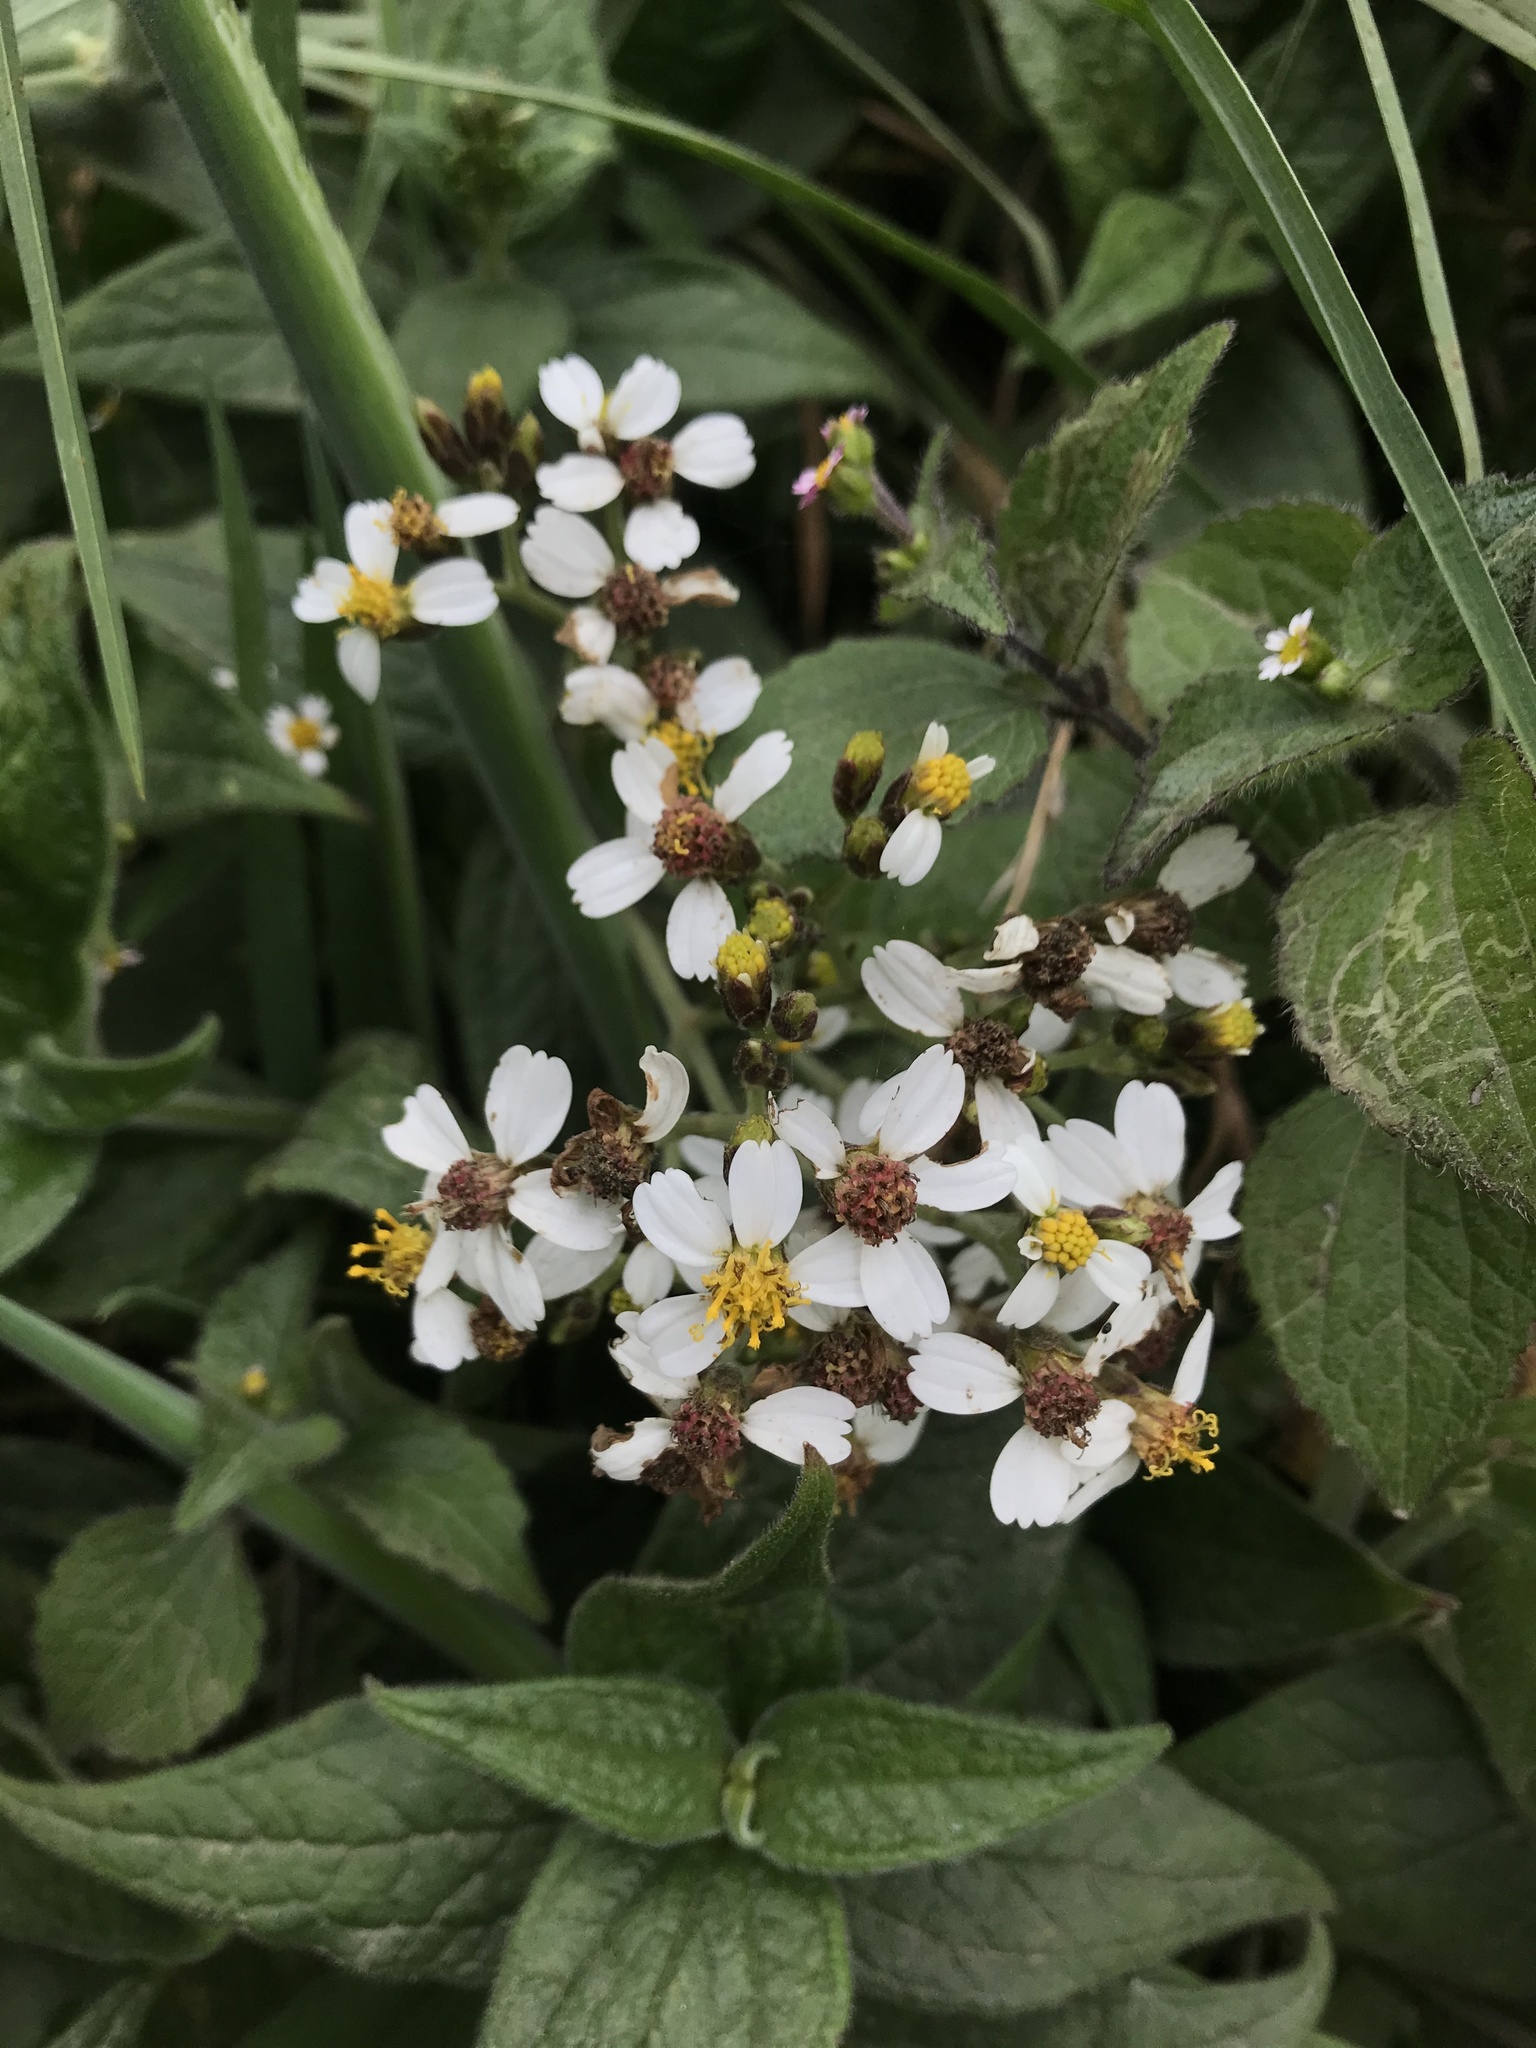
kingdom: Plantae
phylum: Tracheophyta
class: Magnoliopsida
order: Asterales
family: Asteraceae
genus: Alloispermum
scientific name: Alloispermum caracasanum
